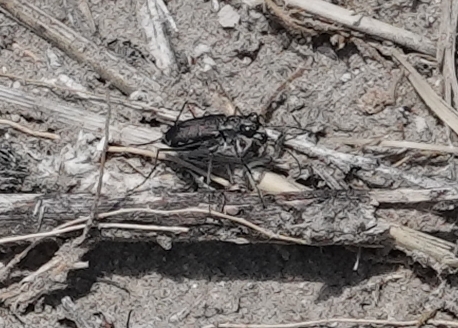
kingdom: Animalia
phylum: Arthropoda
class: Insecta
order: Coleoptera
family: Carabidae
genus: Cicindela
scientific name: Cicindela punctulata
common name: Punctured tiger beetle
